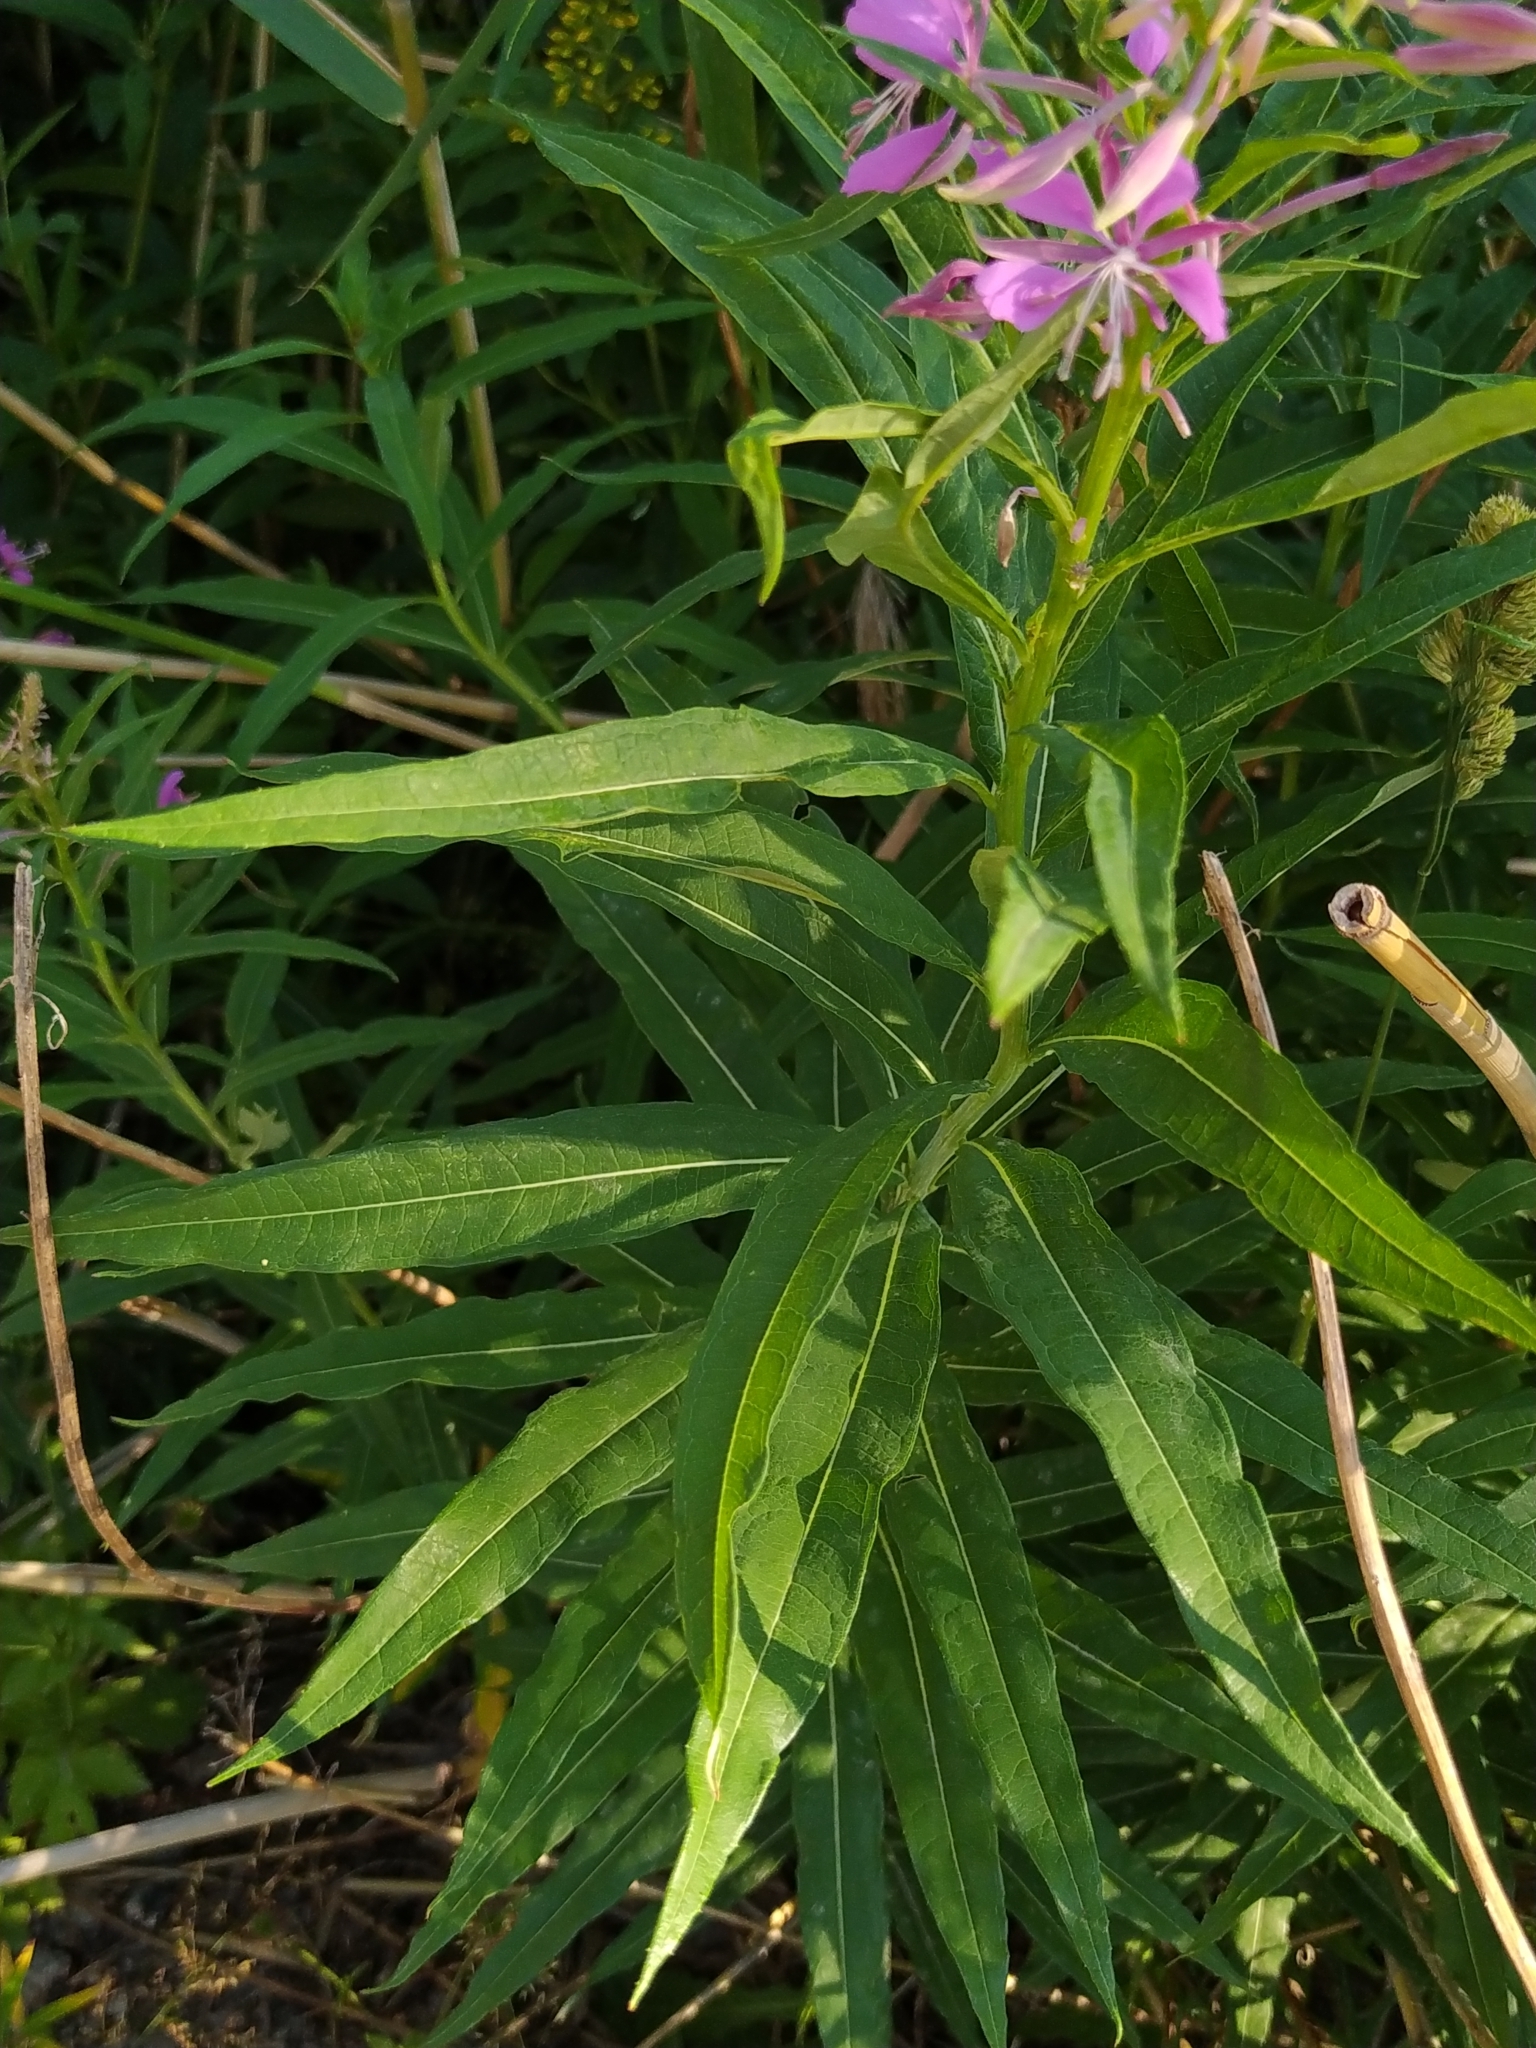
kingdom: Plantae
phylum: Tracheophyta
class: Magnoliopsida
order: Myrtales
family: Onagraceae
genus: Chamaenerion
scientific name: Chamaenerion angustifolium
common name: Fireweed
